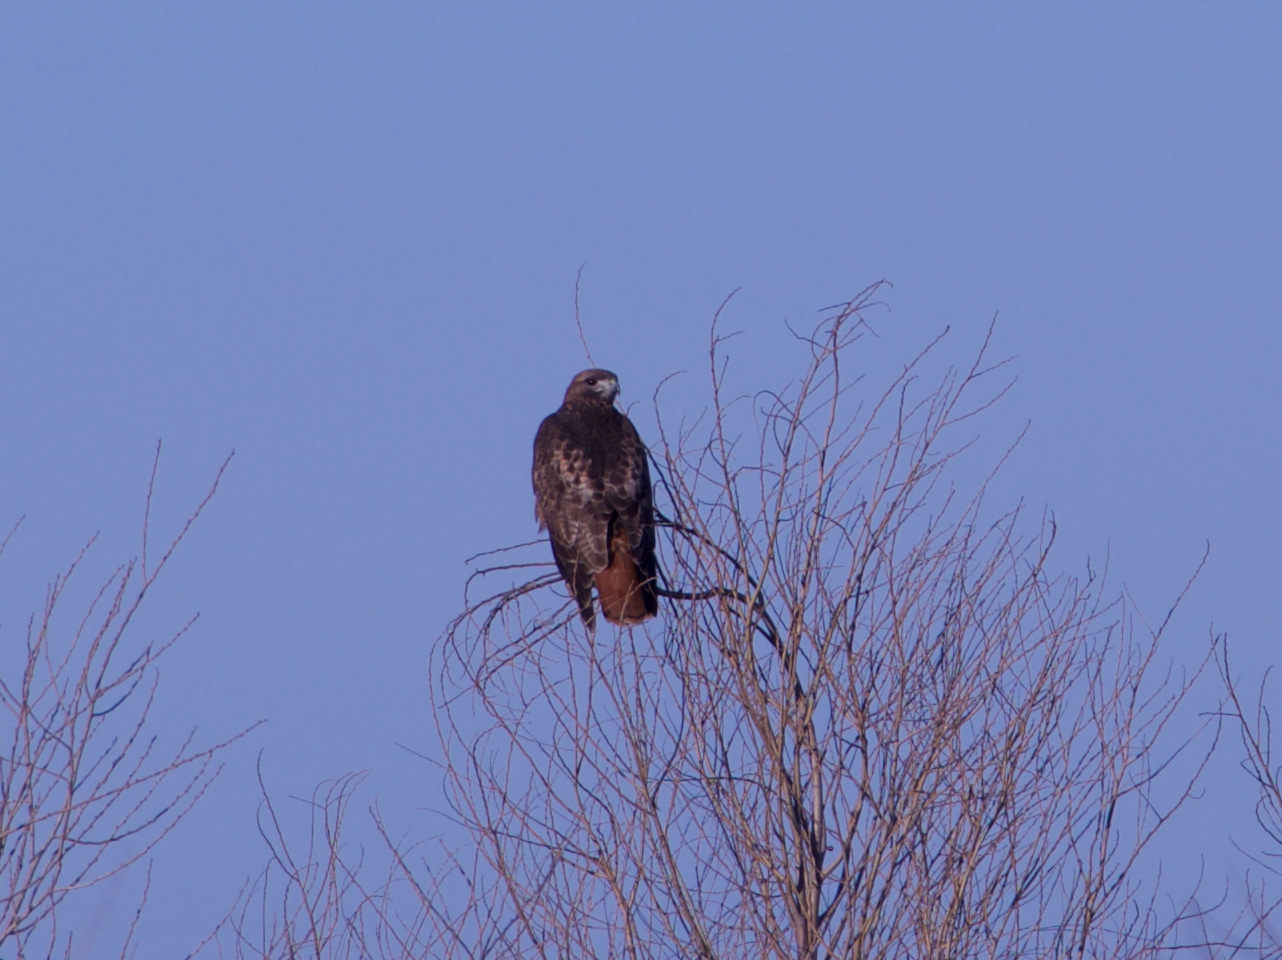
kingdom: Animalia
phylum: Chordata
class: Aves
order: Accipitriformes
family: Accipitridae
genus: Buteo
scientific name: Buteo jamaicensis
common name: Red-tailed hawk
